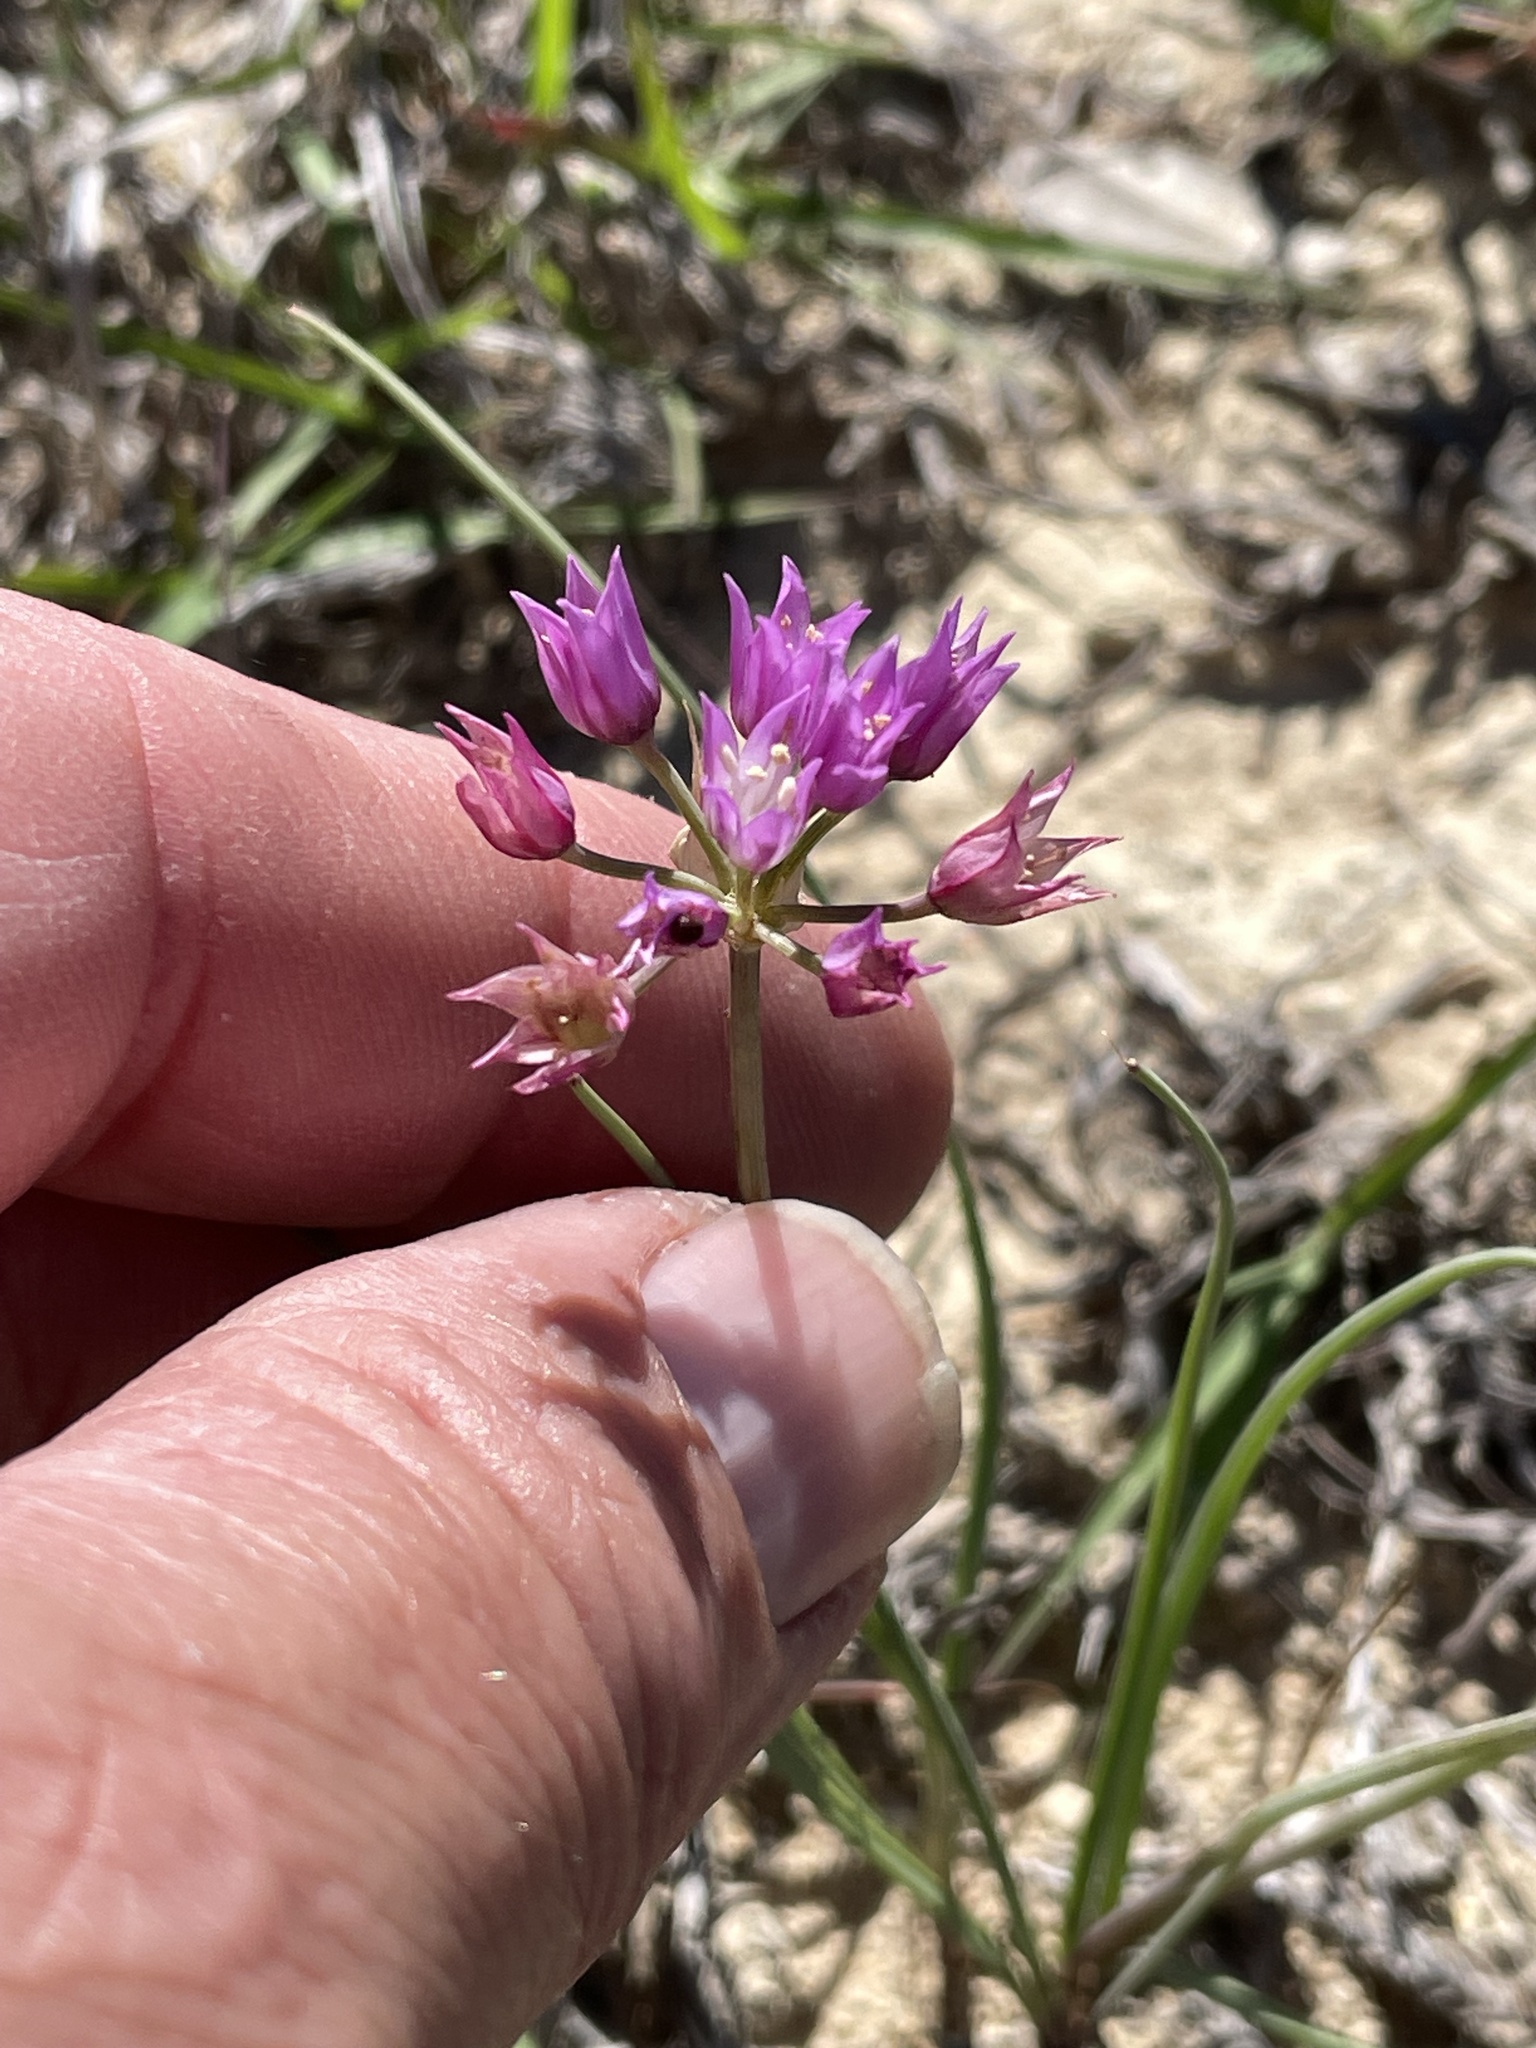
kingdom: Plantae
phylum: Tracheophyta
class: Liliopsida
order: Asparagales
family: Amaryllidaceae
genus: Allium
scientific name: Allium drummondii
